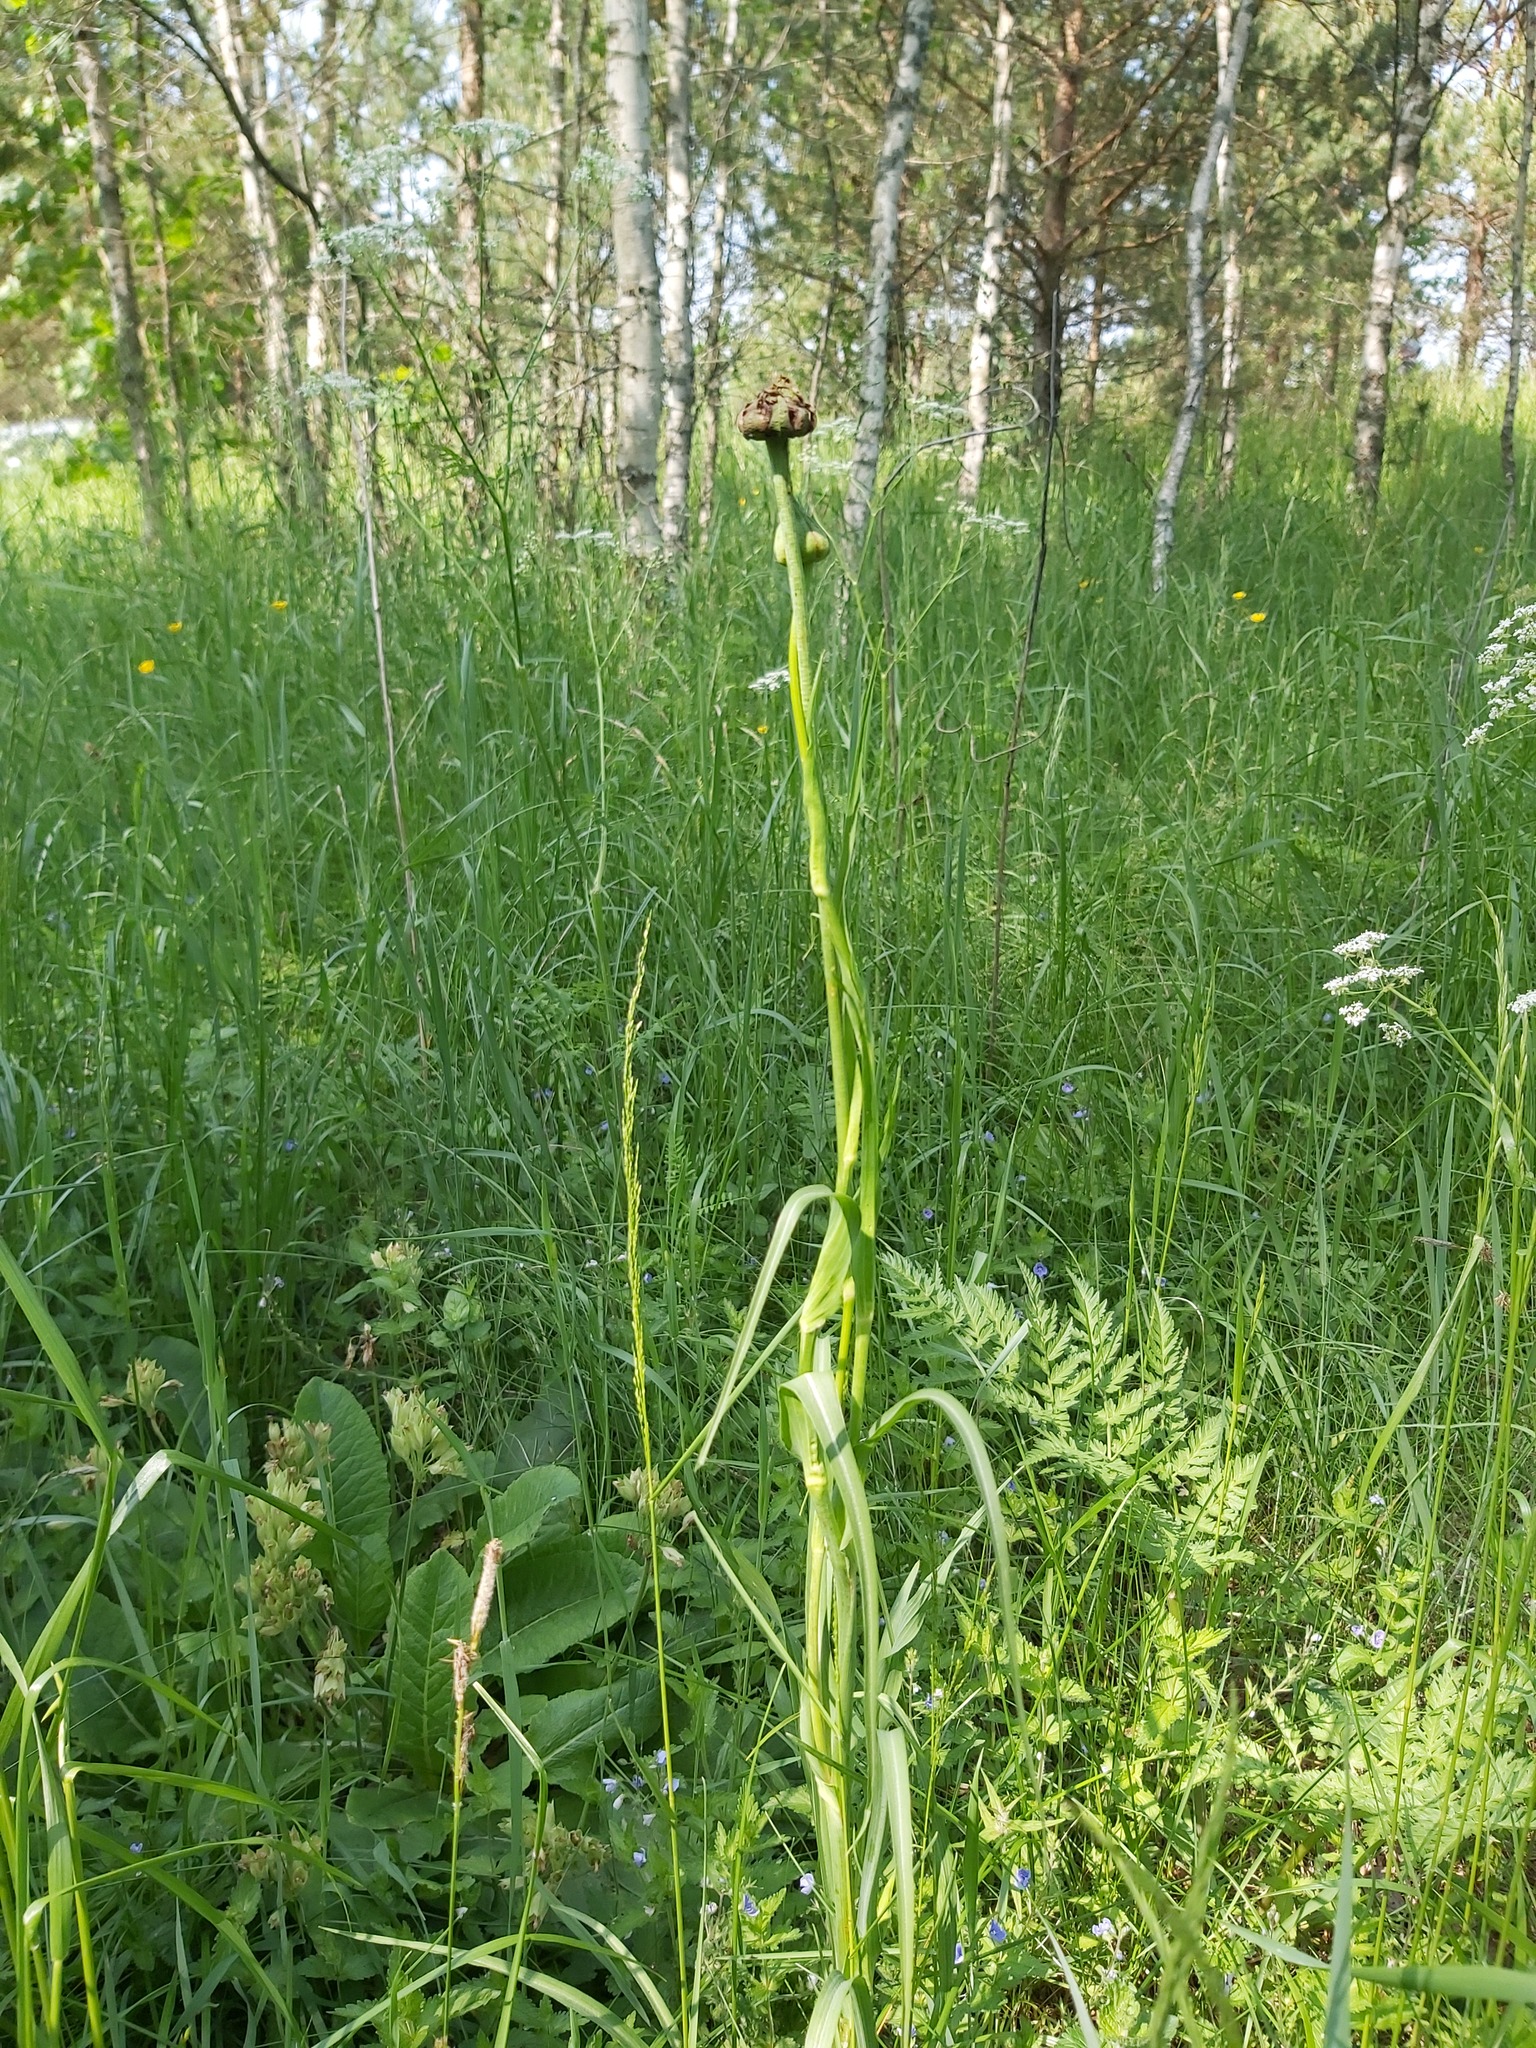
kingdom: Fungi
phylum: Basidiomycota
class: Microbotryomycetes
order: Microbotryales
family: Microbotryaceae
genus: Microbotryum
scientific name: Microbotryum tragopogonis-pratensis
